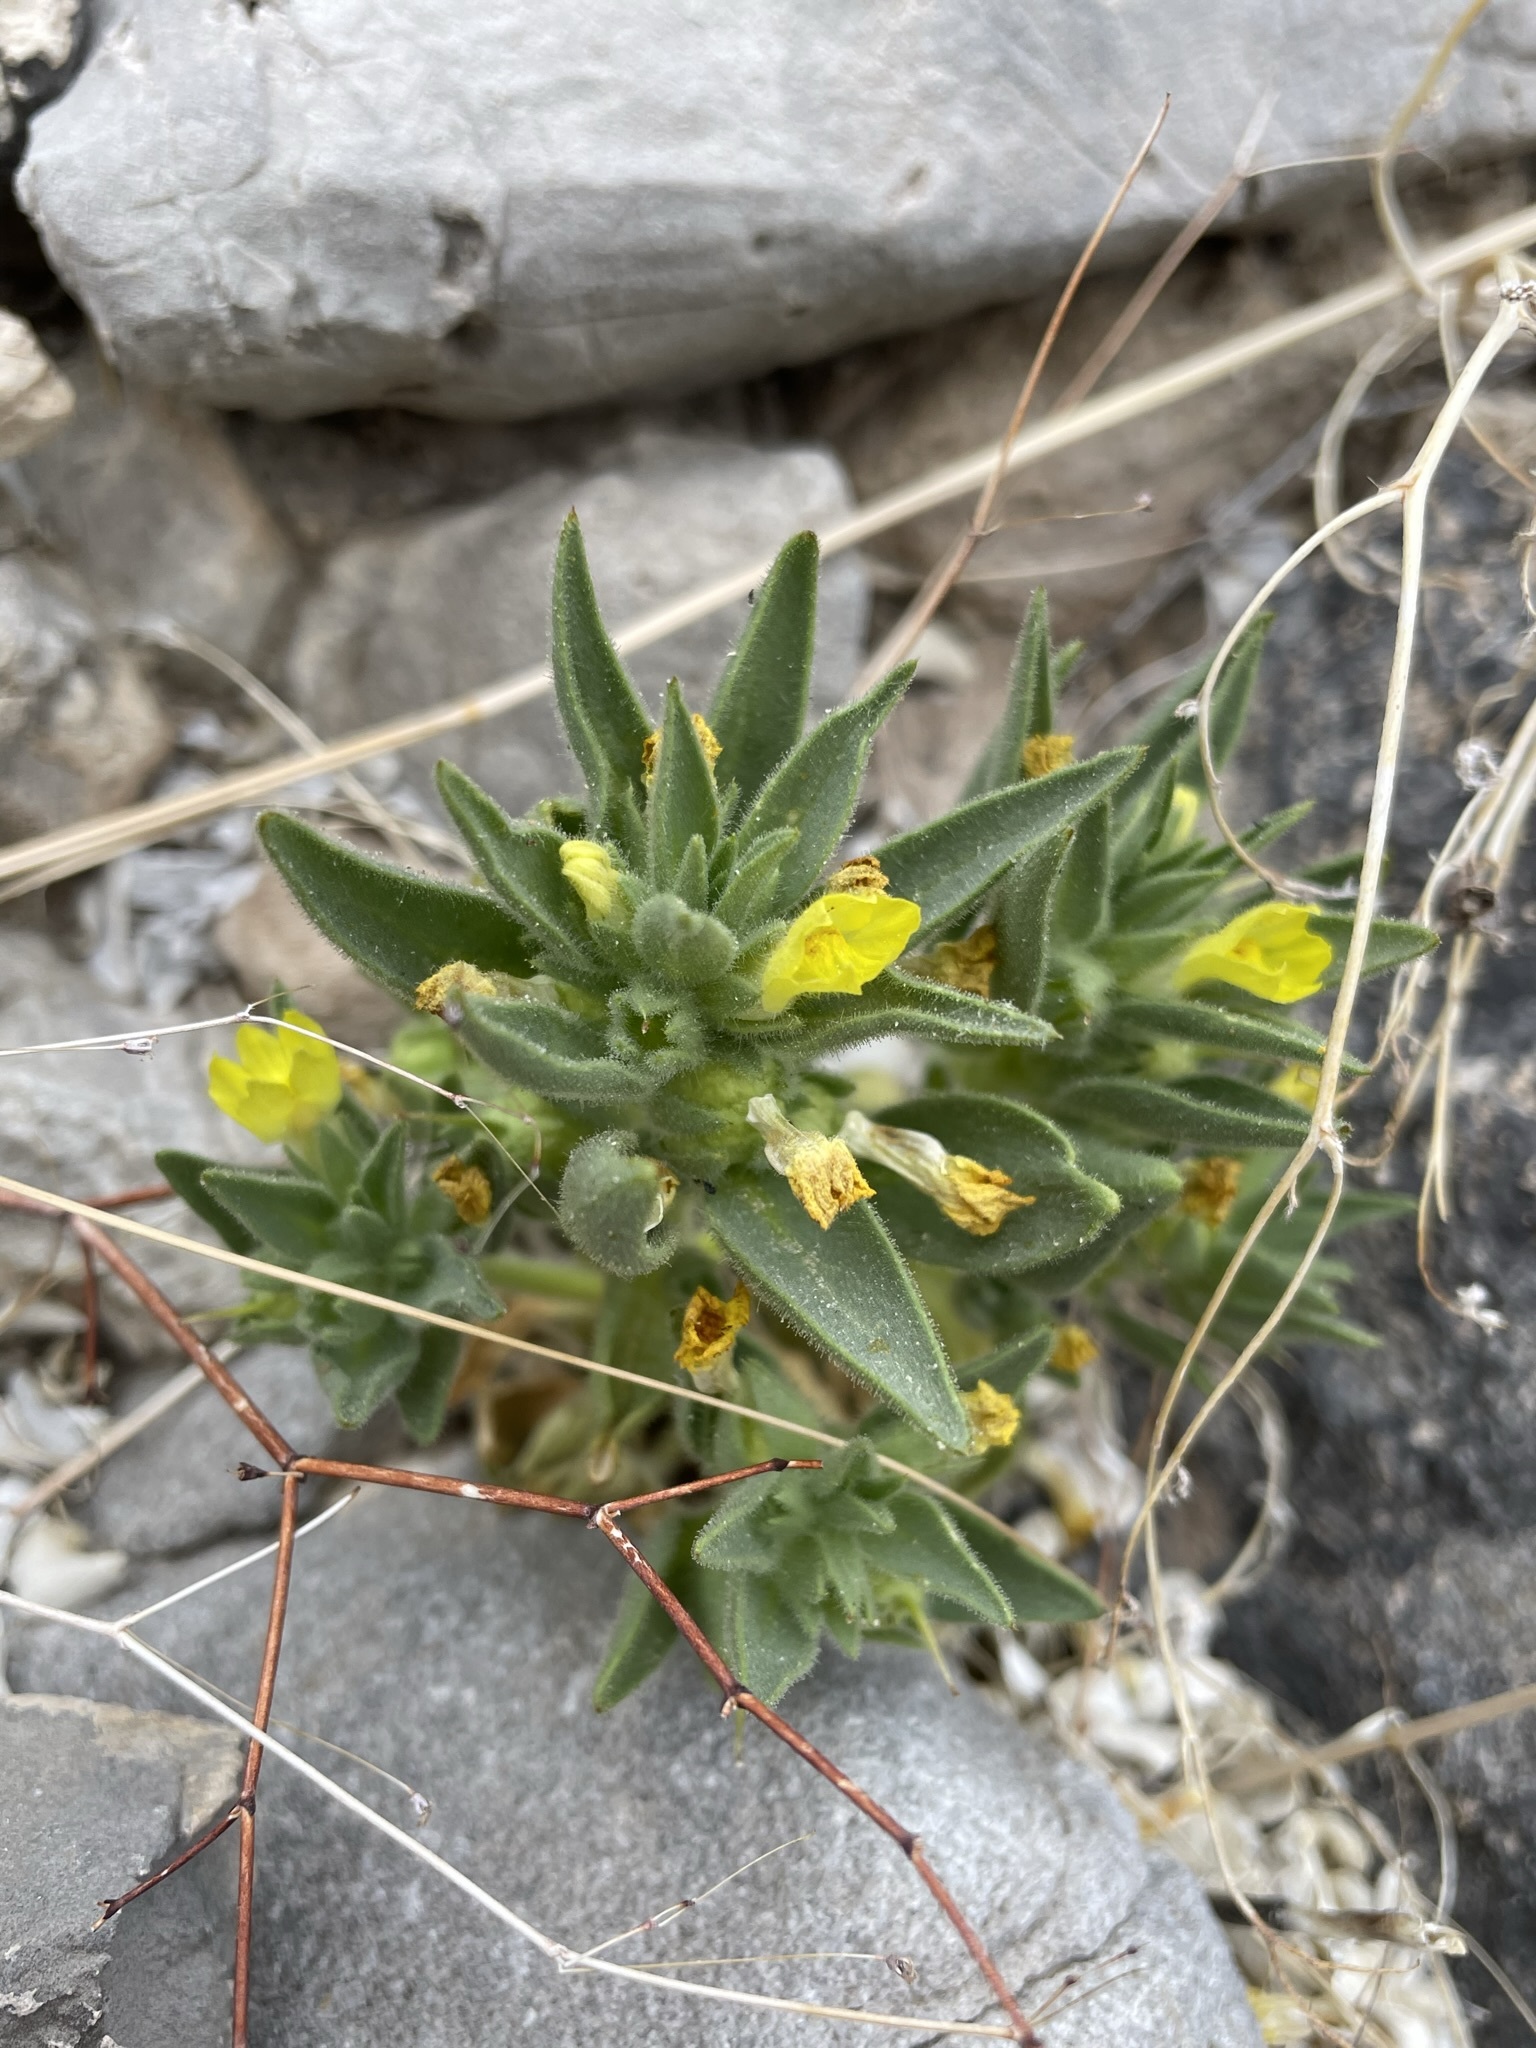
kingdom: Plantae
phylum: Tracheophyta
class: Magnoliopsida
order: Lamiales
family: Plantaginaceae
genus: Mohavea
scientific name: Mohavea breviflora
